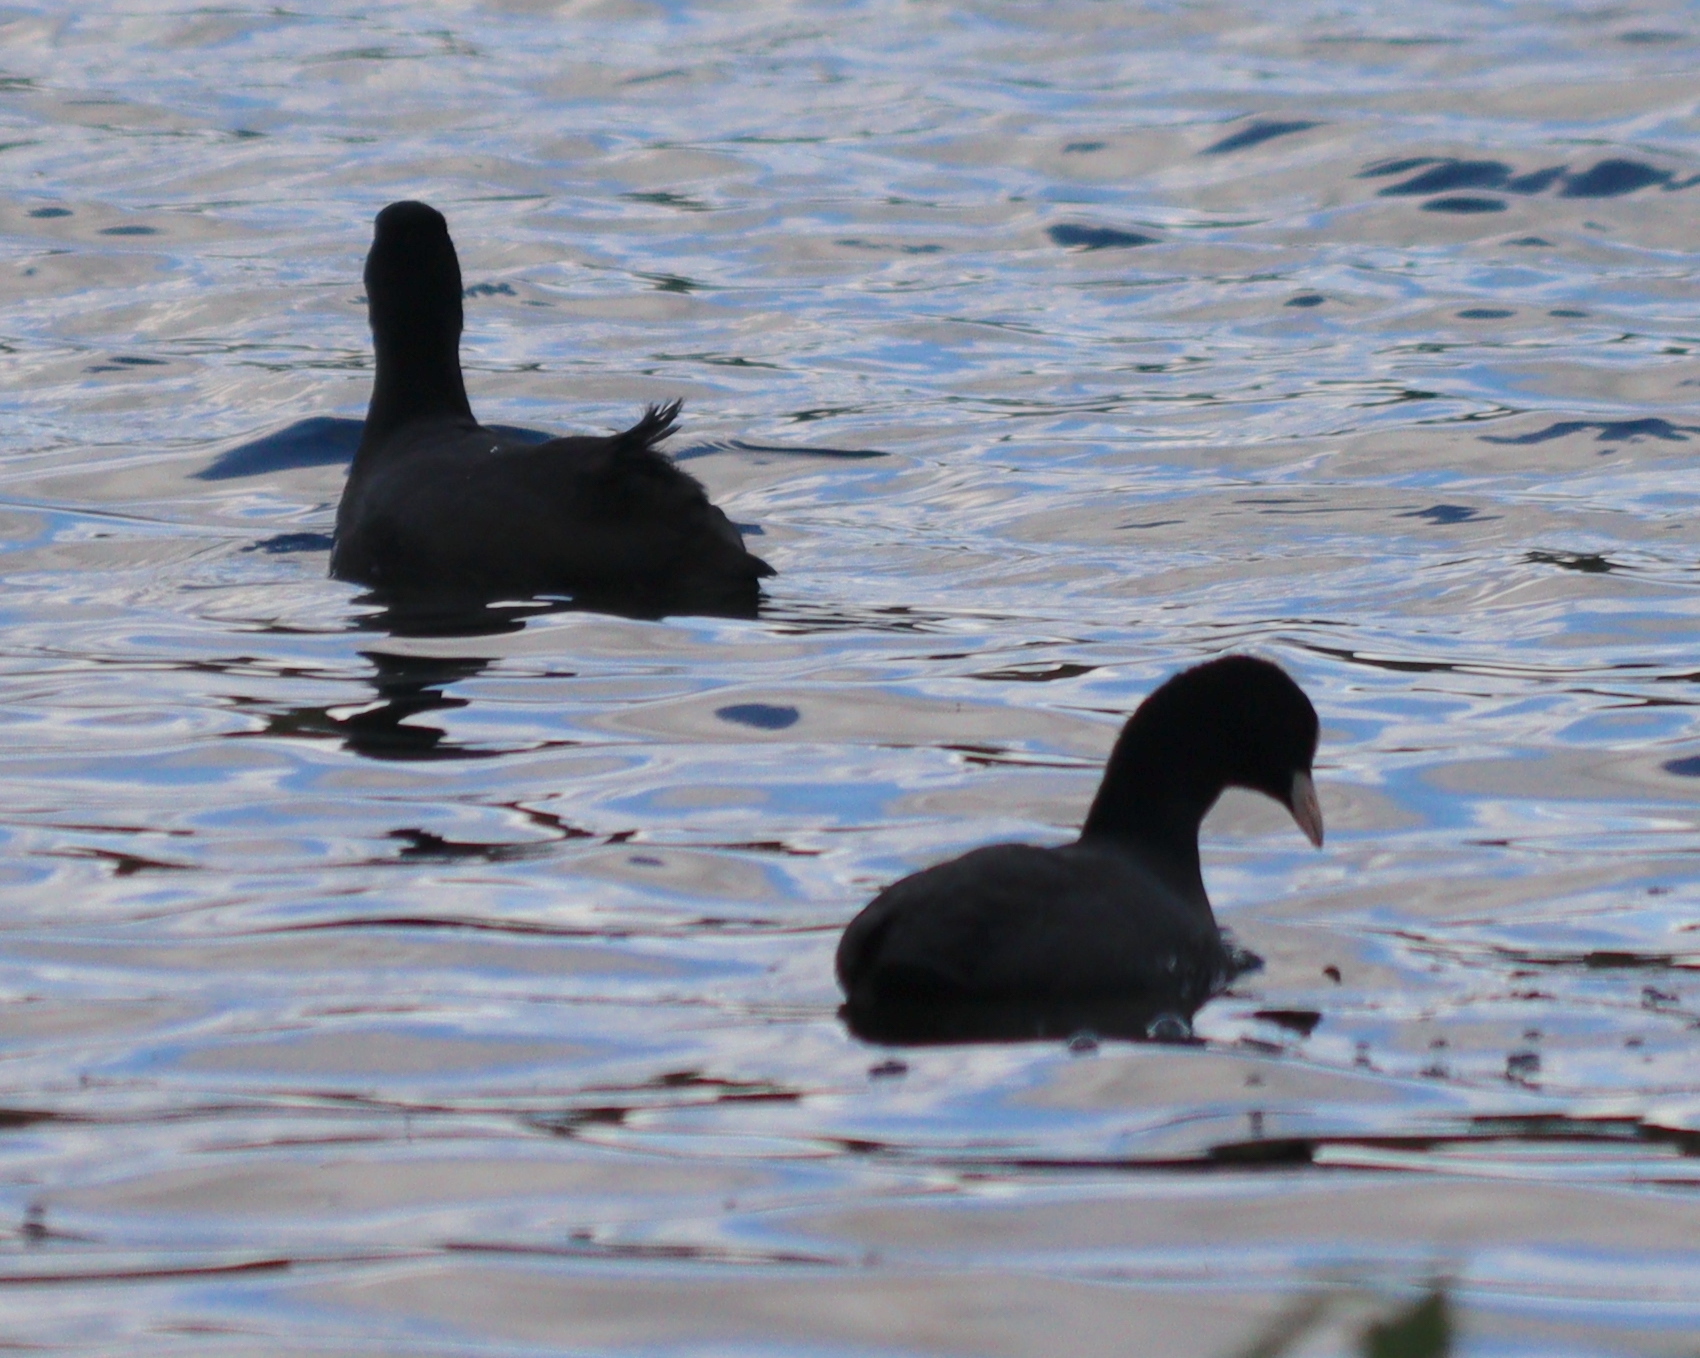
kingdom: Animalia
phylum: Chordata
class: Aves
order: Gruiformes
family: Rallidae
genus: Fulica
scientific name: Fulica atra
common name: Eurasian coot
